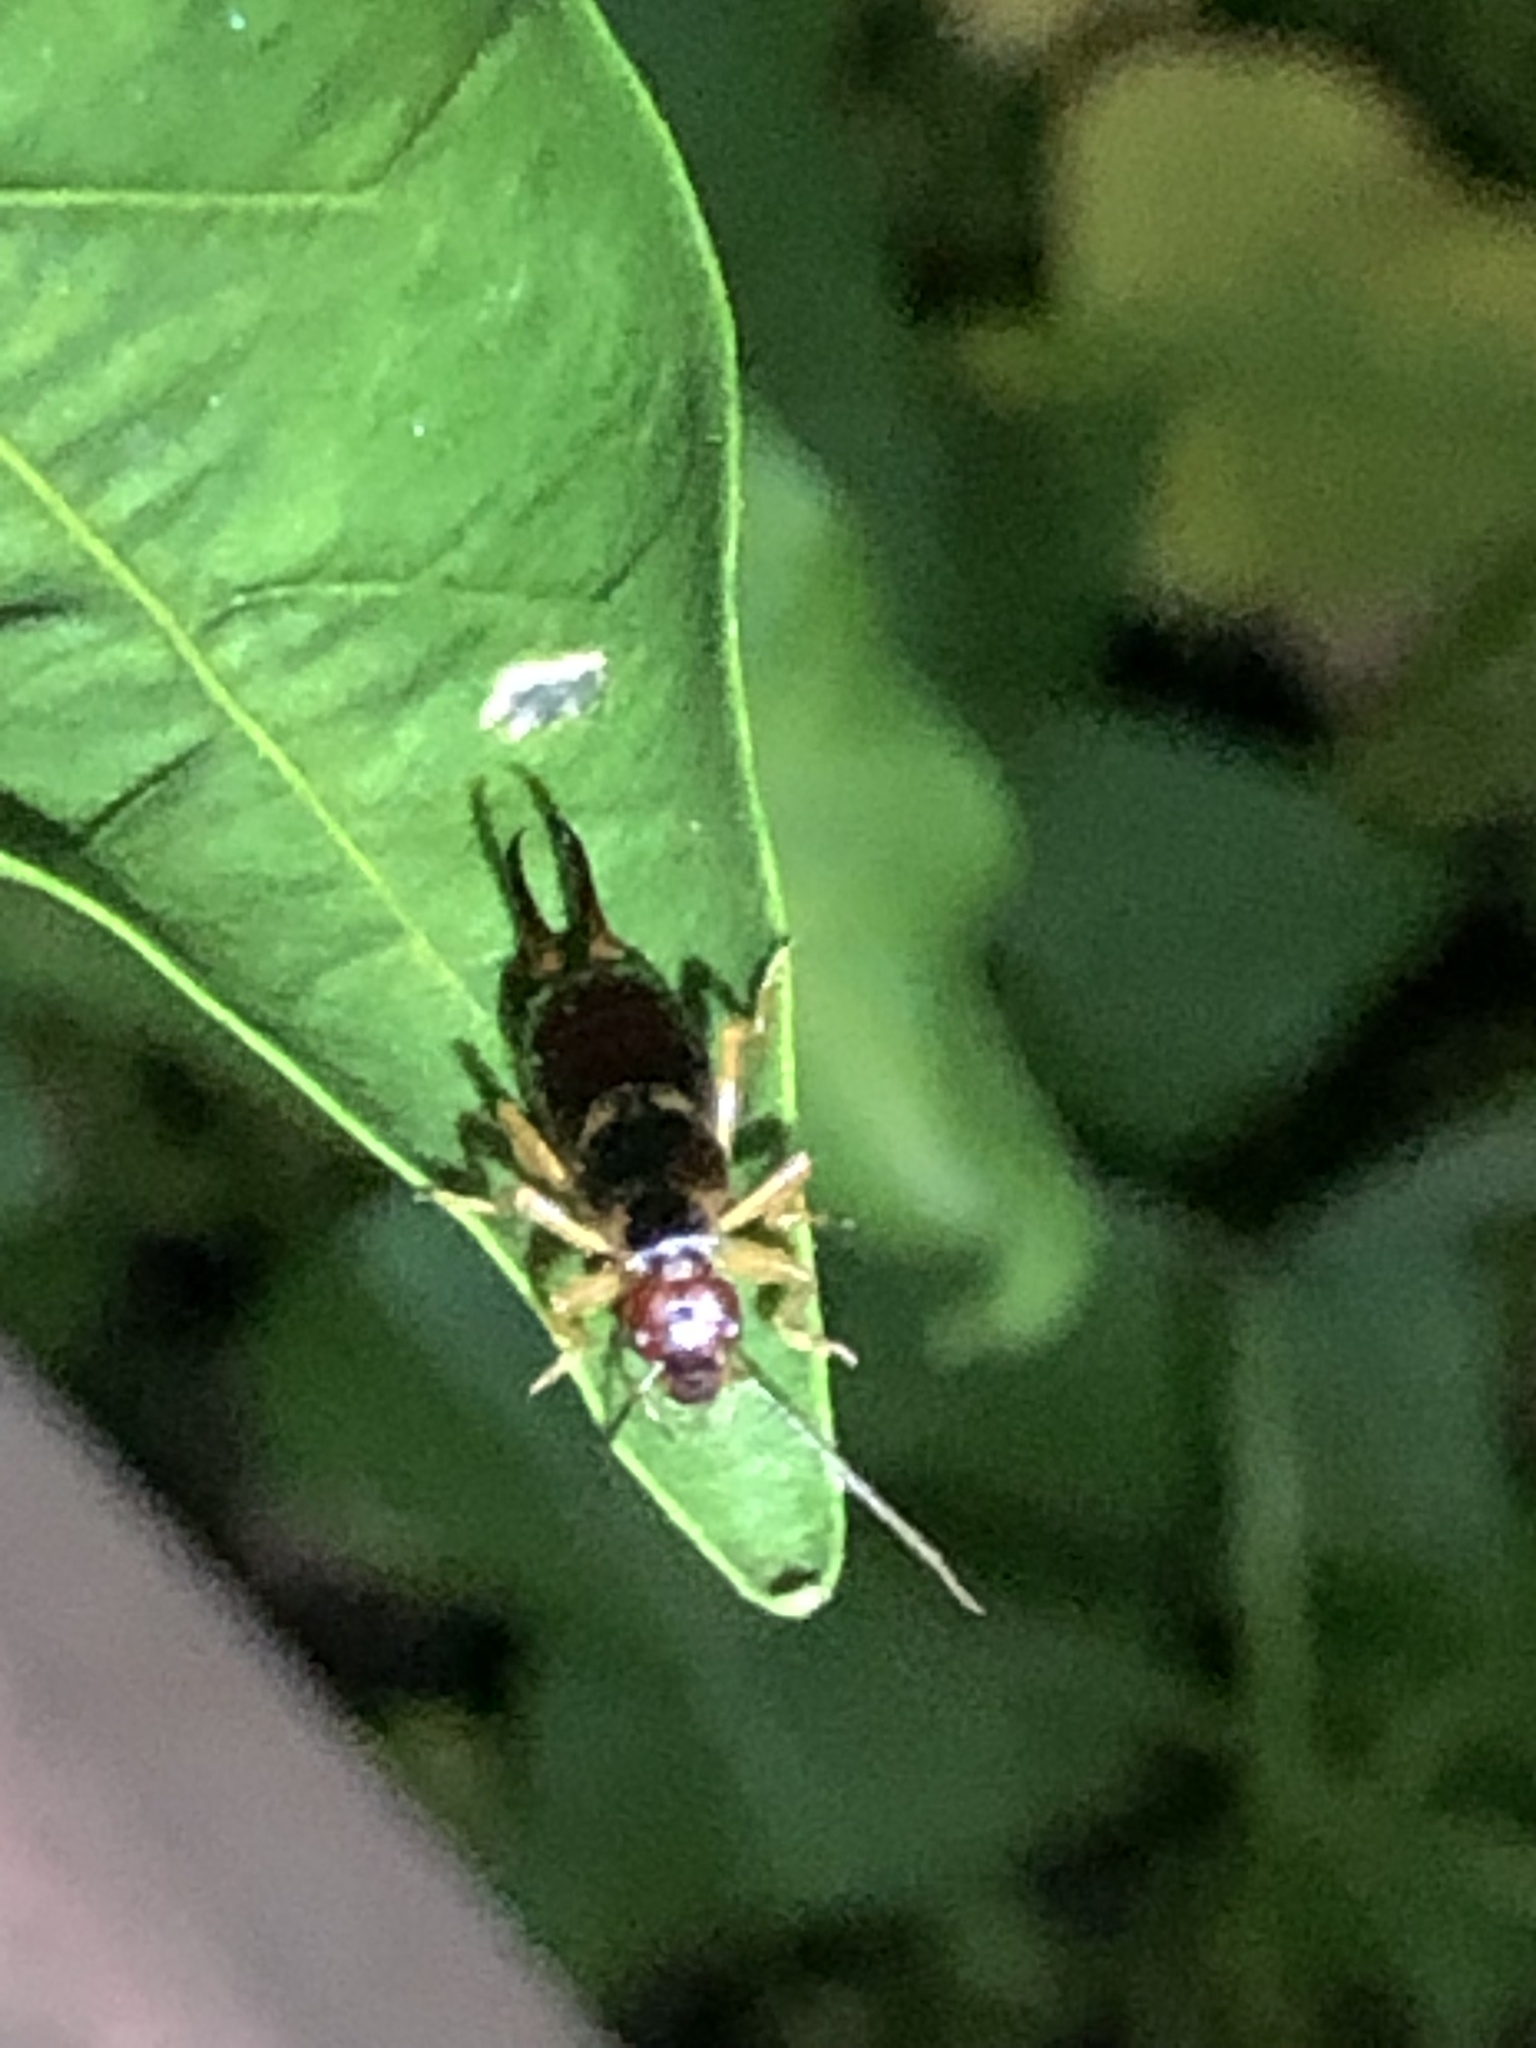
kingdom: Animalia
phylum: Arthropoda
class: Insecta
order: Dermaptera
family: Forficulidae
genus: Forficula
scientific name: Forficula
